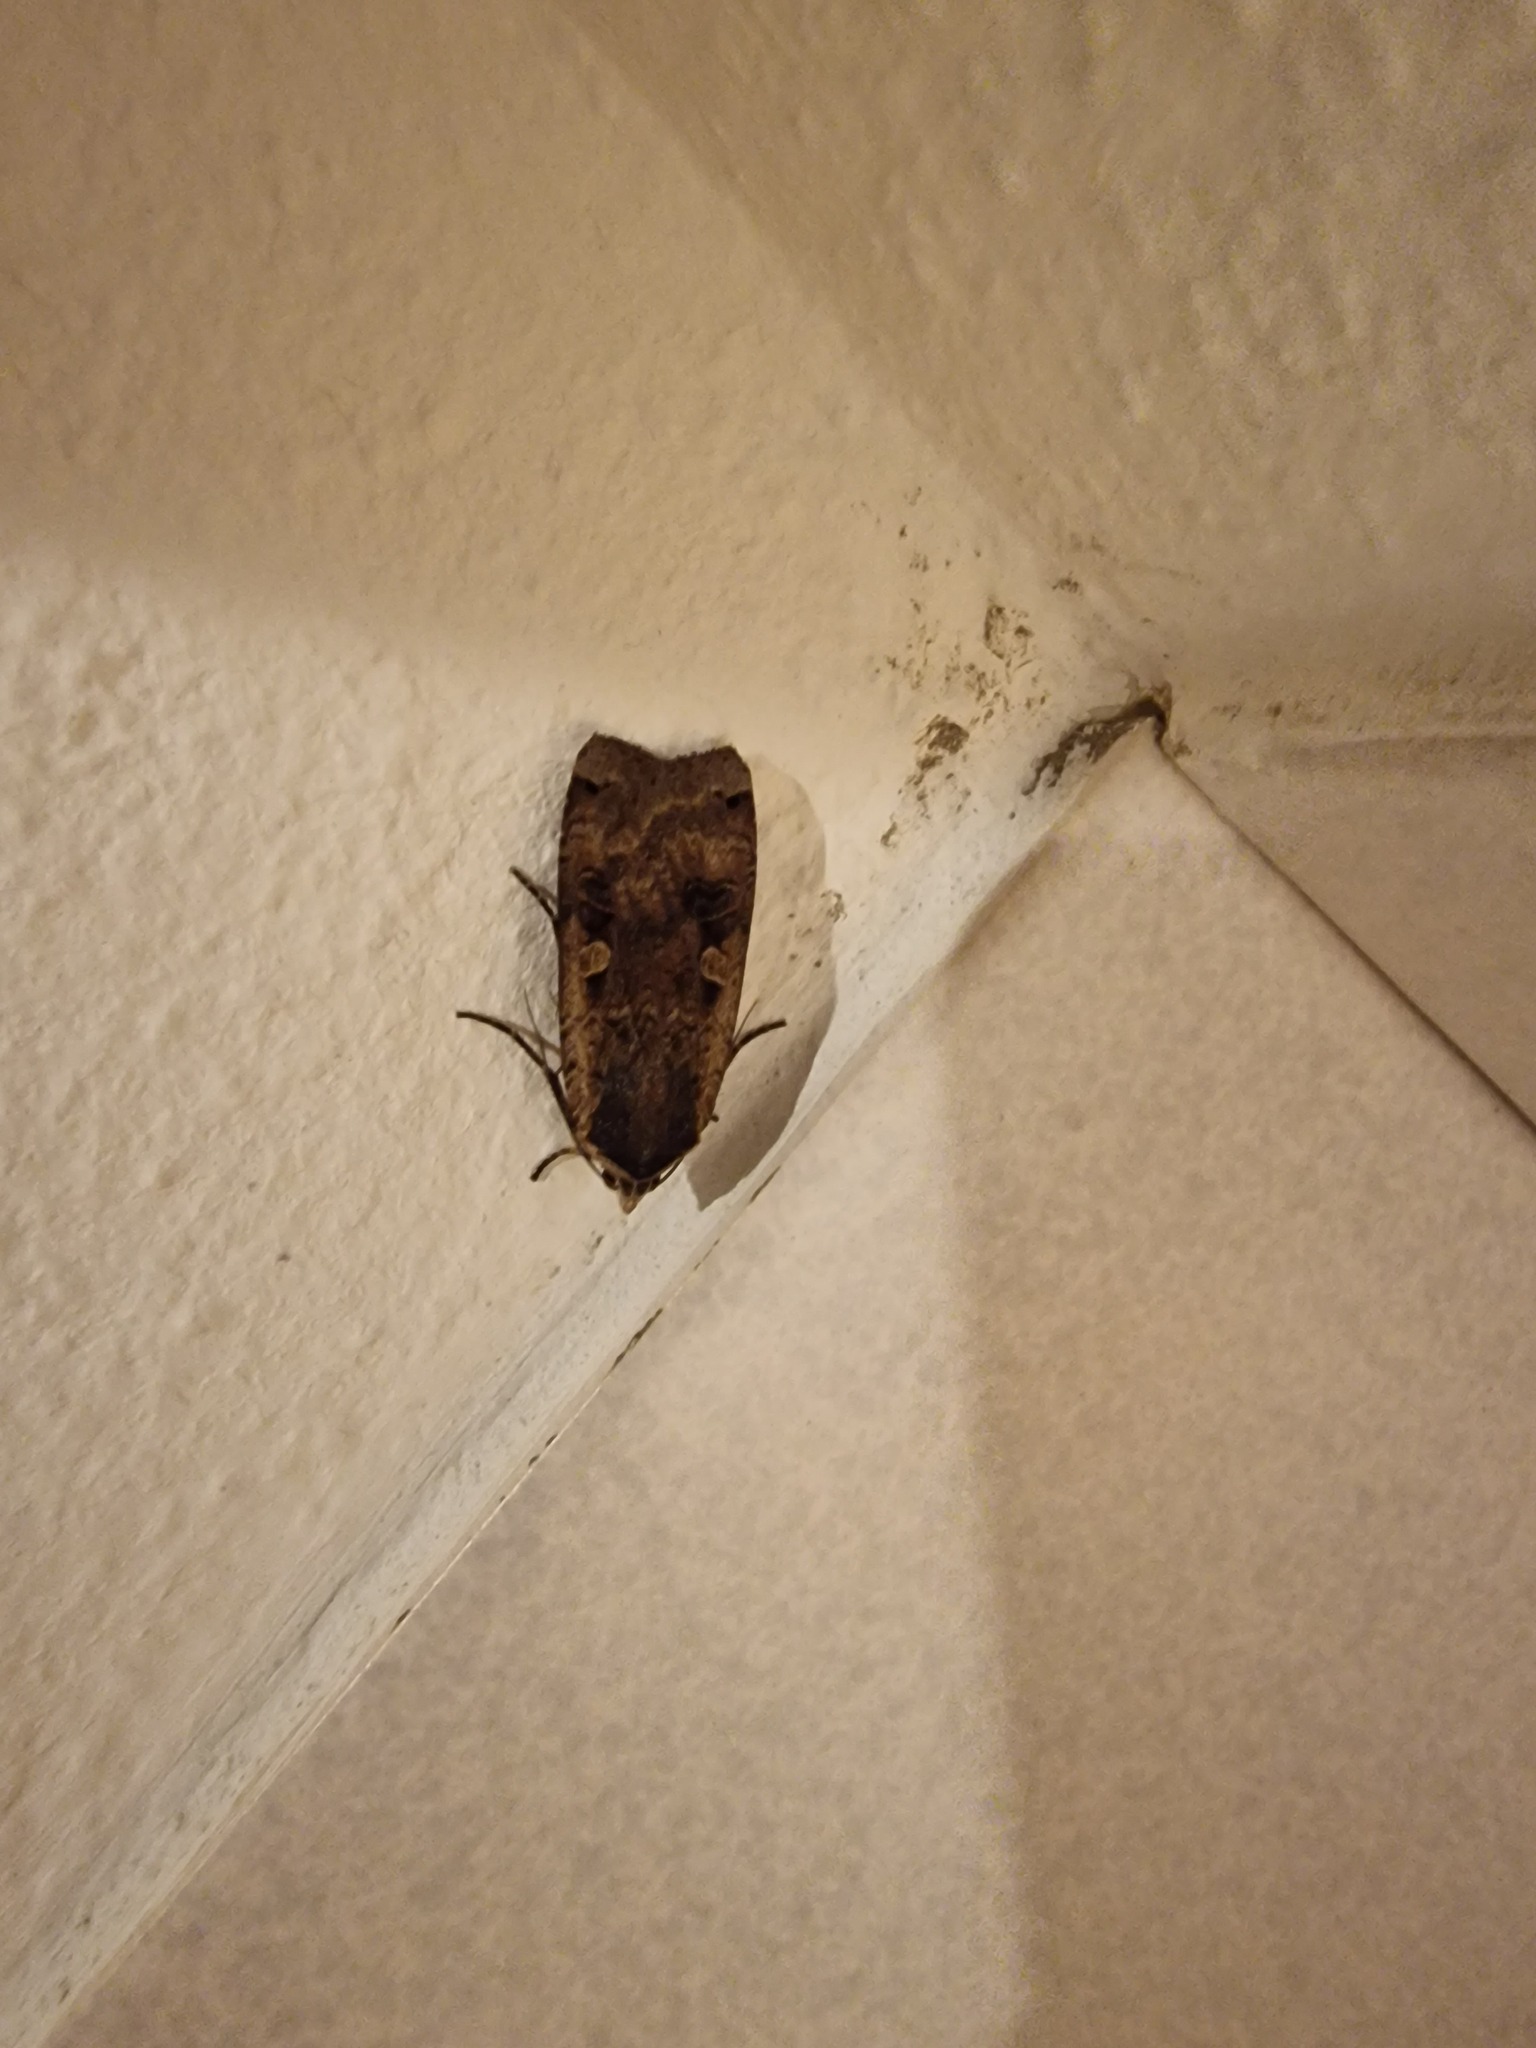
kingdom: Animalia
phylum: Arthropoda
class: Insecta
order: Lepidoptera
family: Noctuidae
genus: Noctua
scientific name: Noctua pronuba
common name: Large yellow underwing
